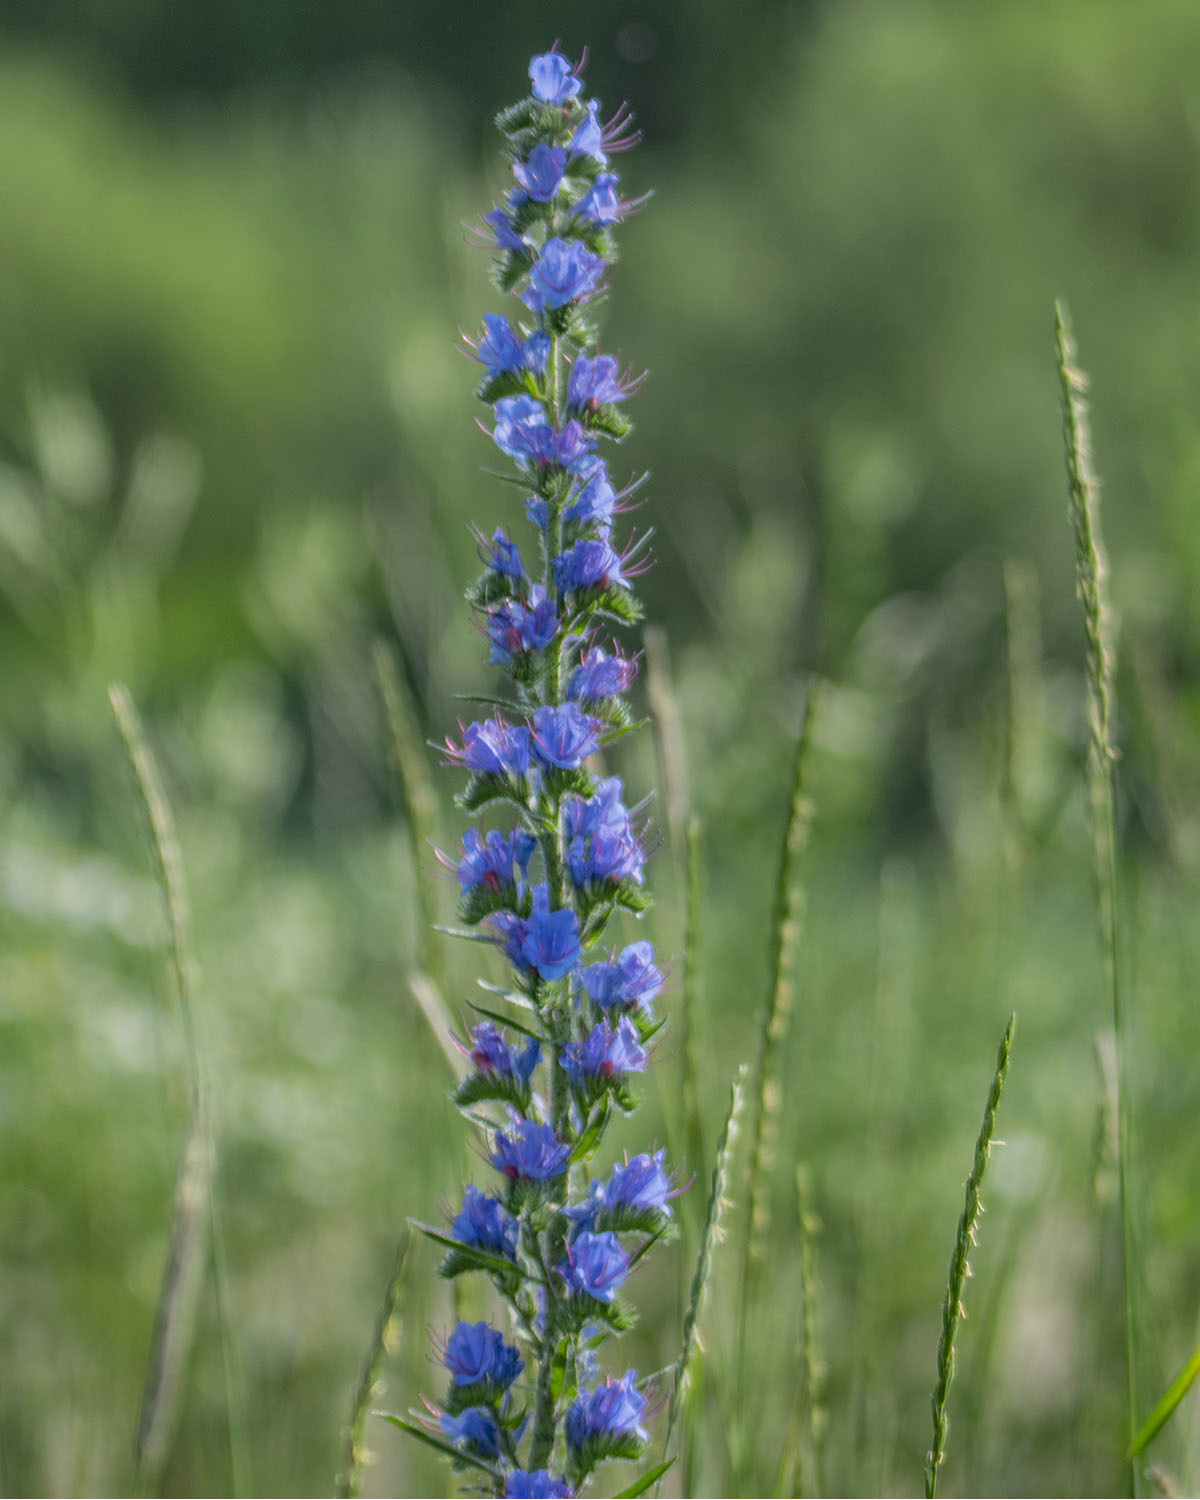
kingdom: Plantae
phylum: Tracheophyta
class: Magnoliopsida
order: Boraginales
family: Boraginaceae
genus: Echium
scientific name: Echium vulgare
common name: Common viper's bugloss
